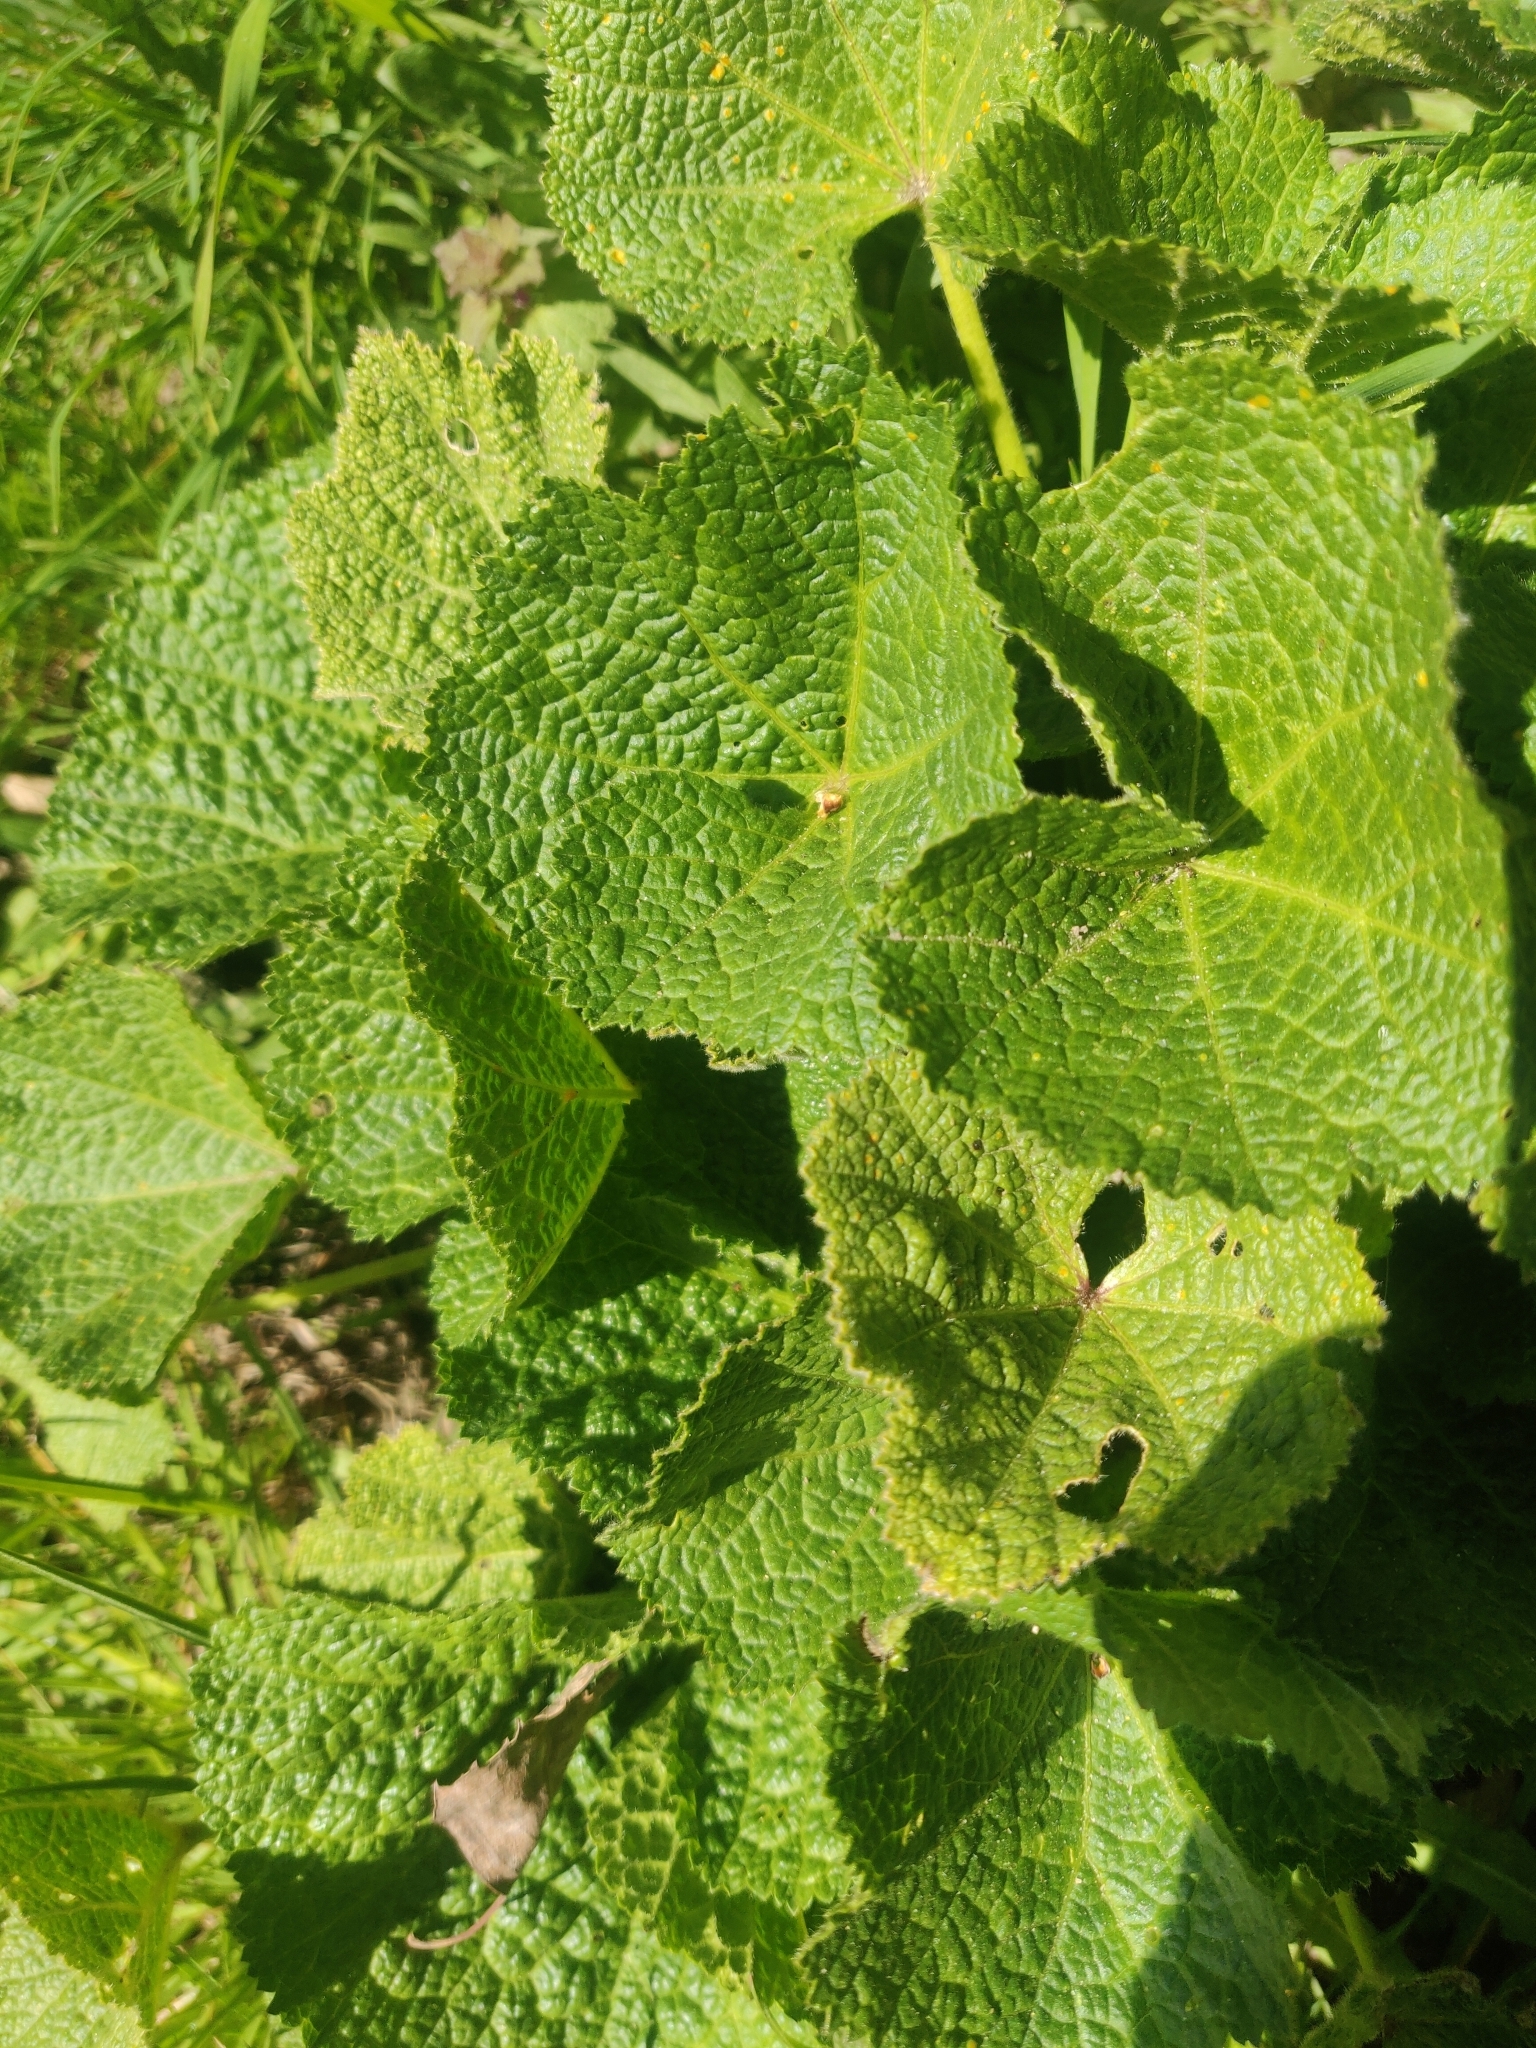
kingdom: Plantae
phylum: Tracheophyta
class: Magnoliopsida
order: Malvales
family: Malvaceae
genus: Alcea
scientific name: Alcea rosea
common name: Hollyhock
